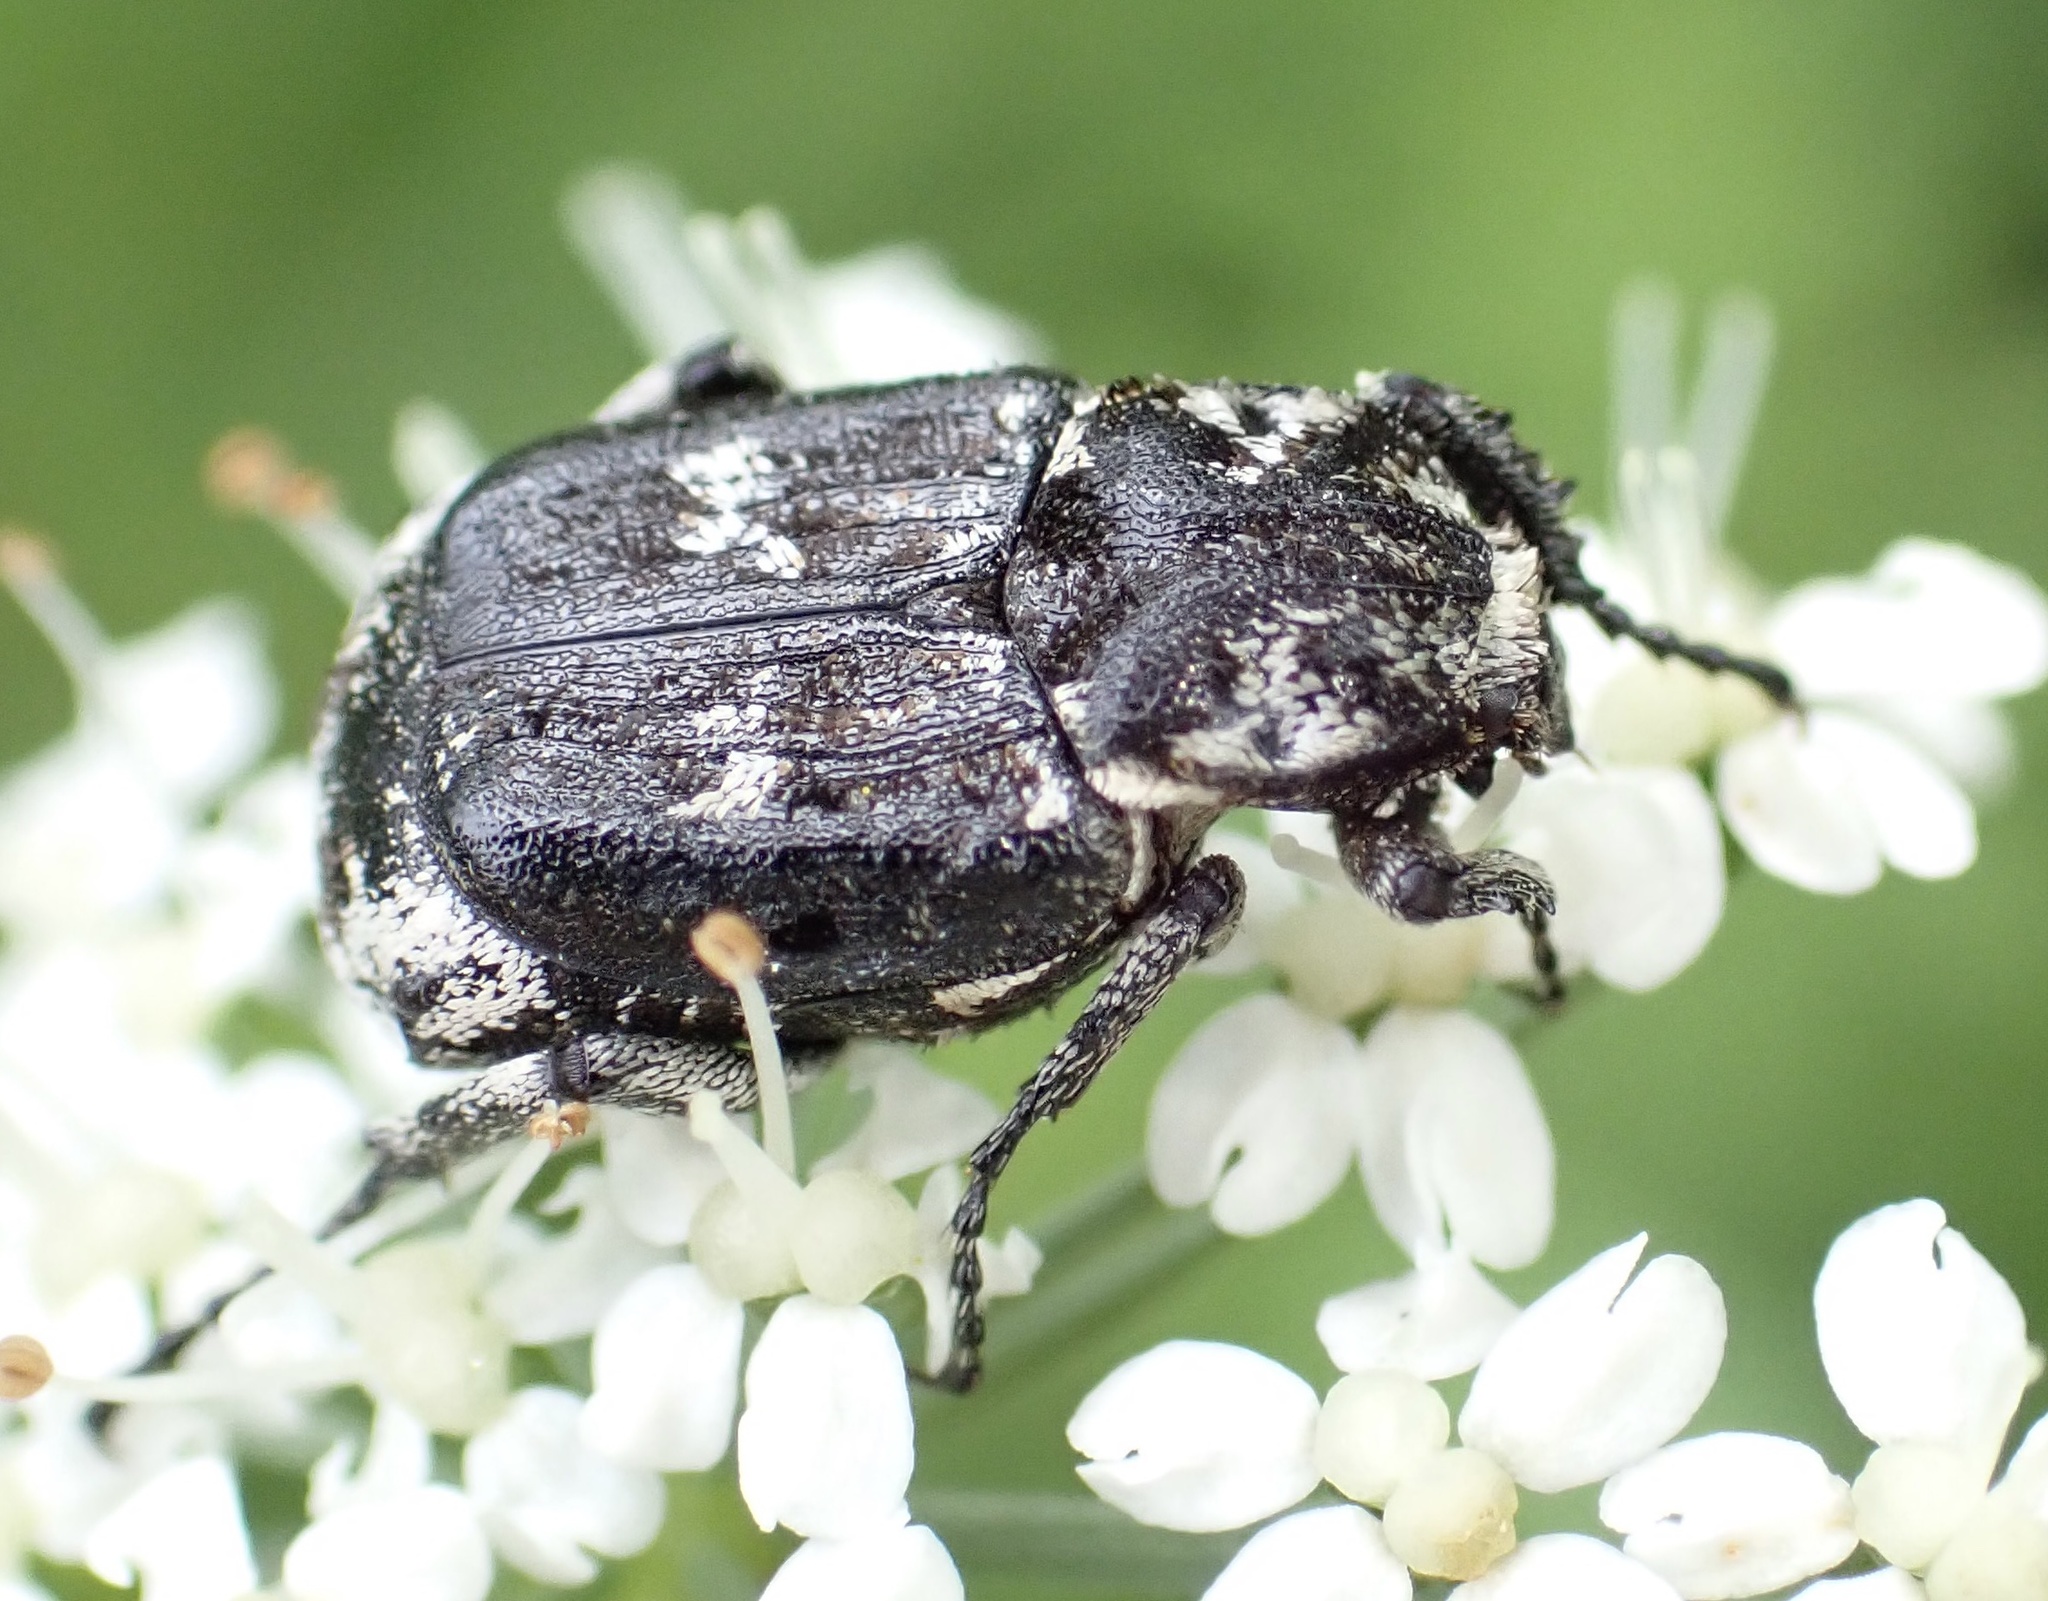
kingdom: Animalia
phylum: Arthropoda
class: Insecta
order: Coleoptera
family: Scarabaeidae
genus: Valgus
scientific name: Valgus hemipterus
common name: Bug flower chafer
